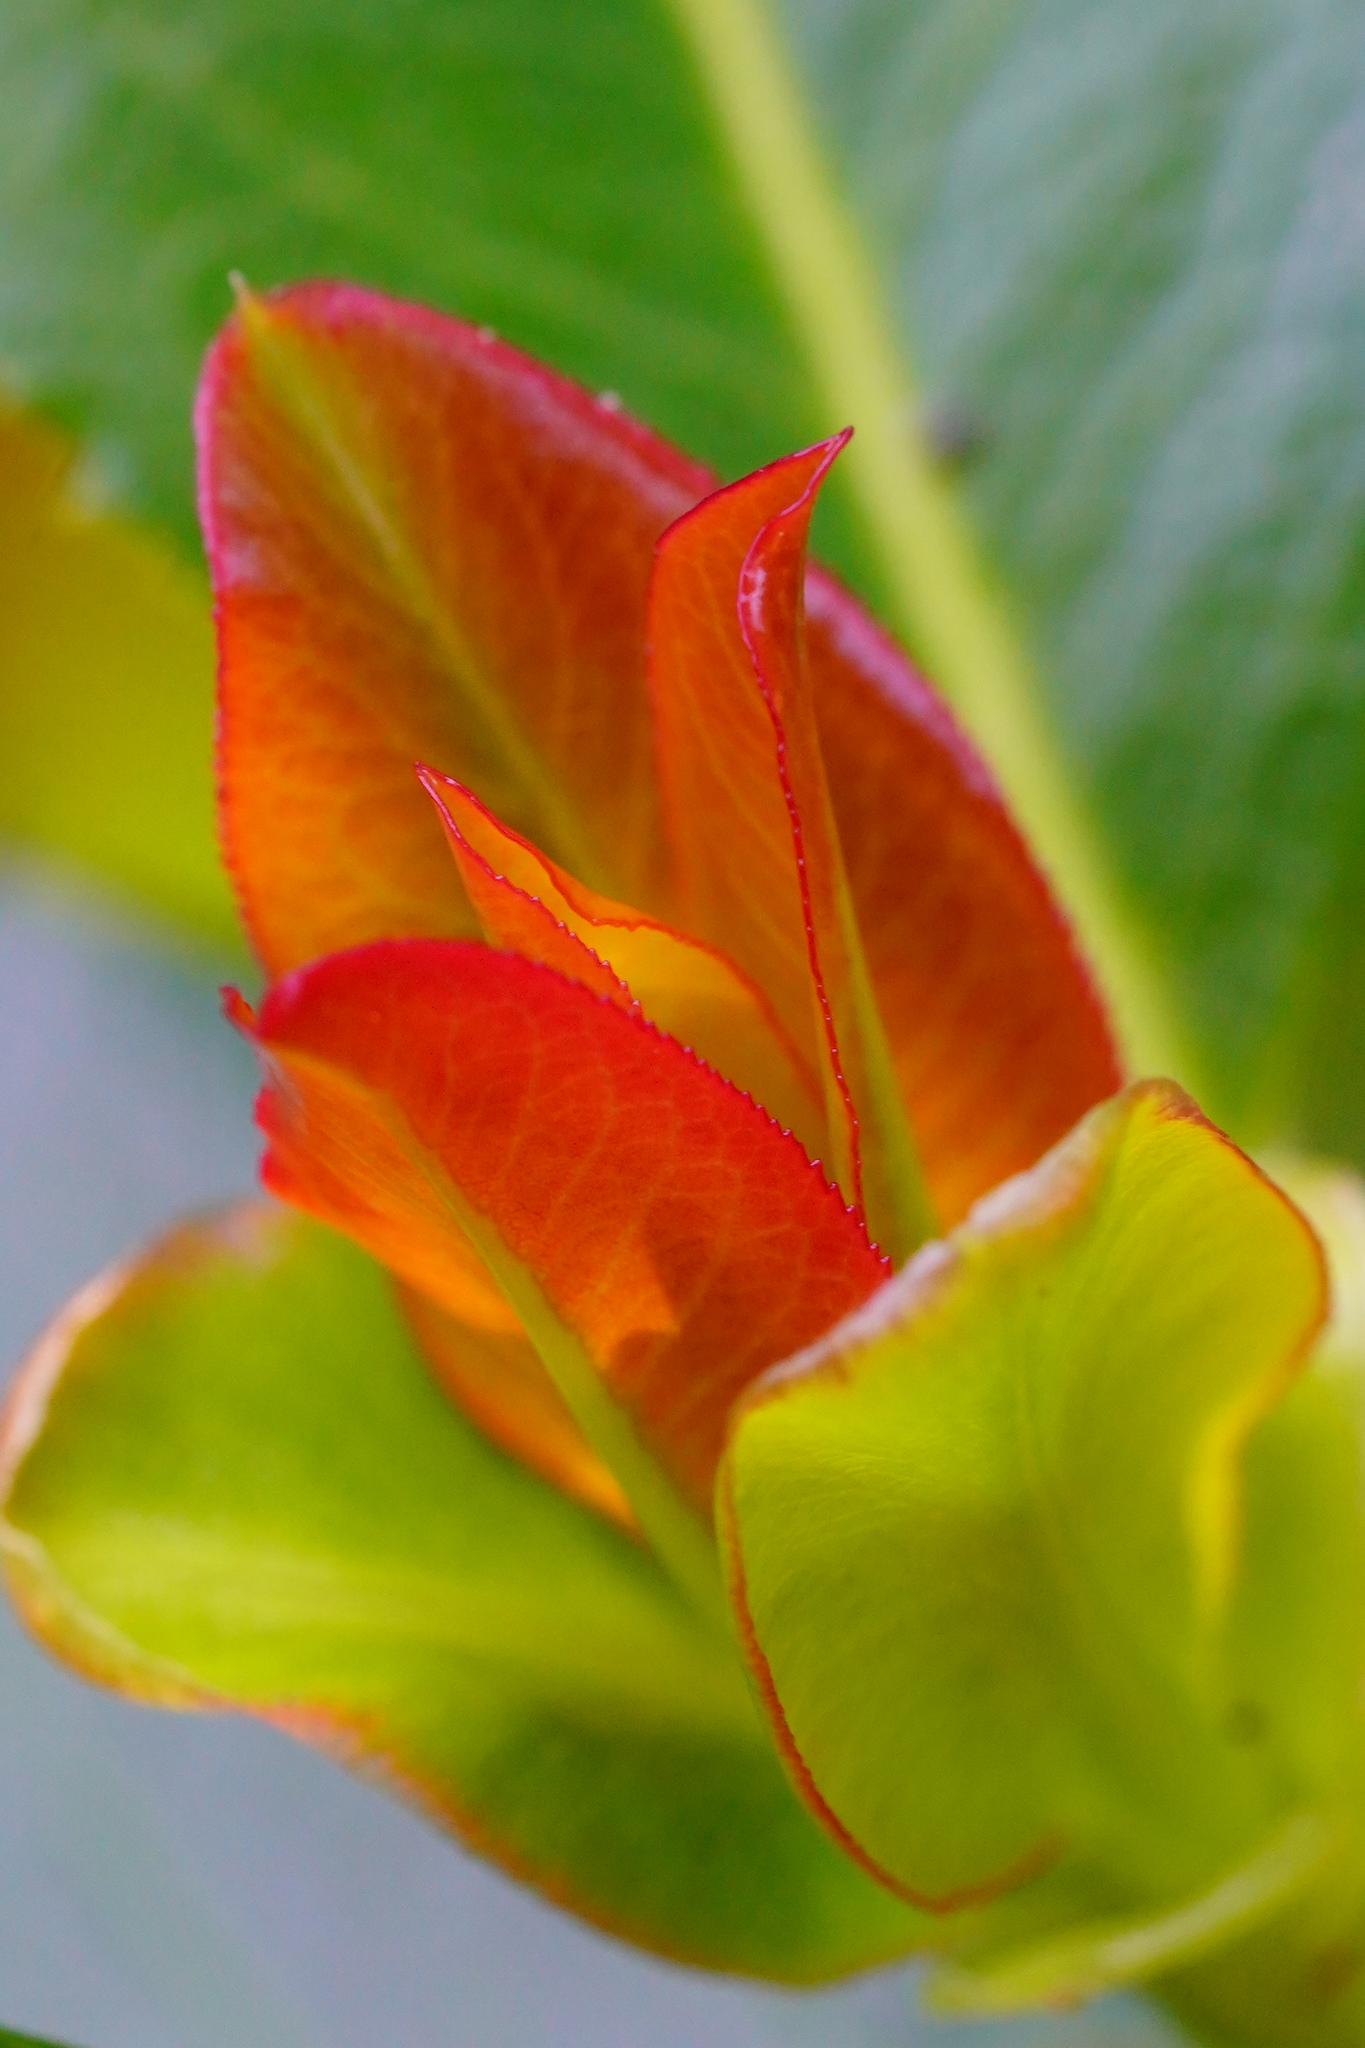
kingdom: Plantae
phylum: Tracheophyta
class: Magnoliopsida
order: Ericales
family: Ericaceae
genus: Arbutus
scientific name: Arbutus menziesii
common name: Pacific madrone
